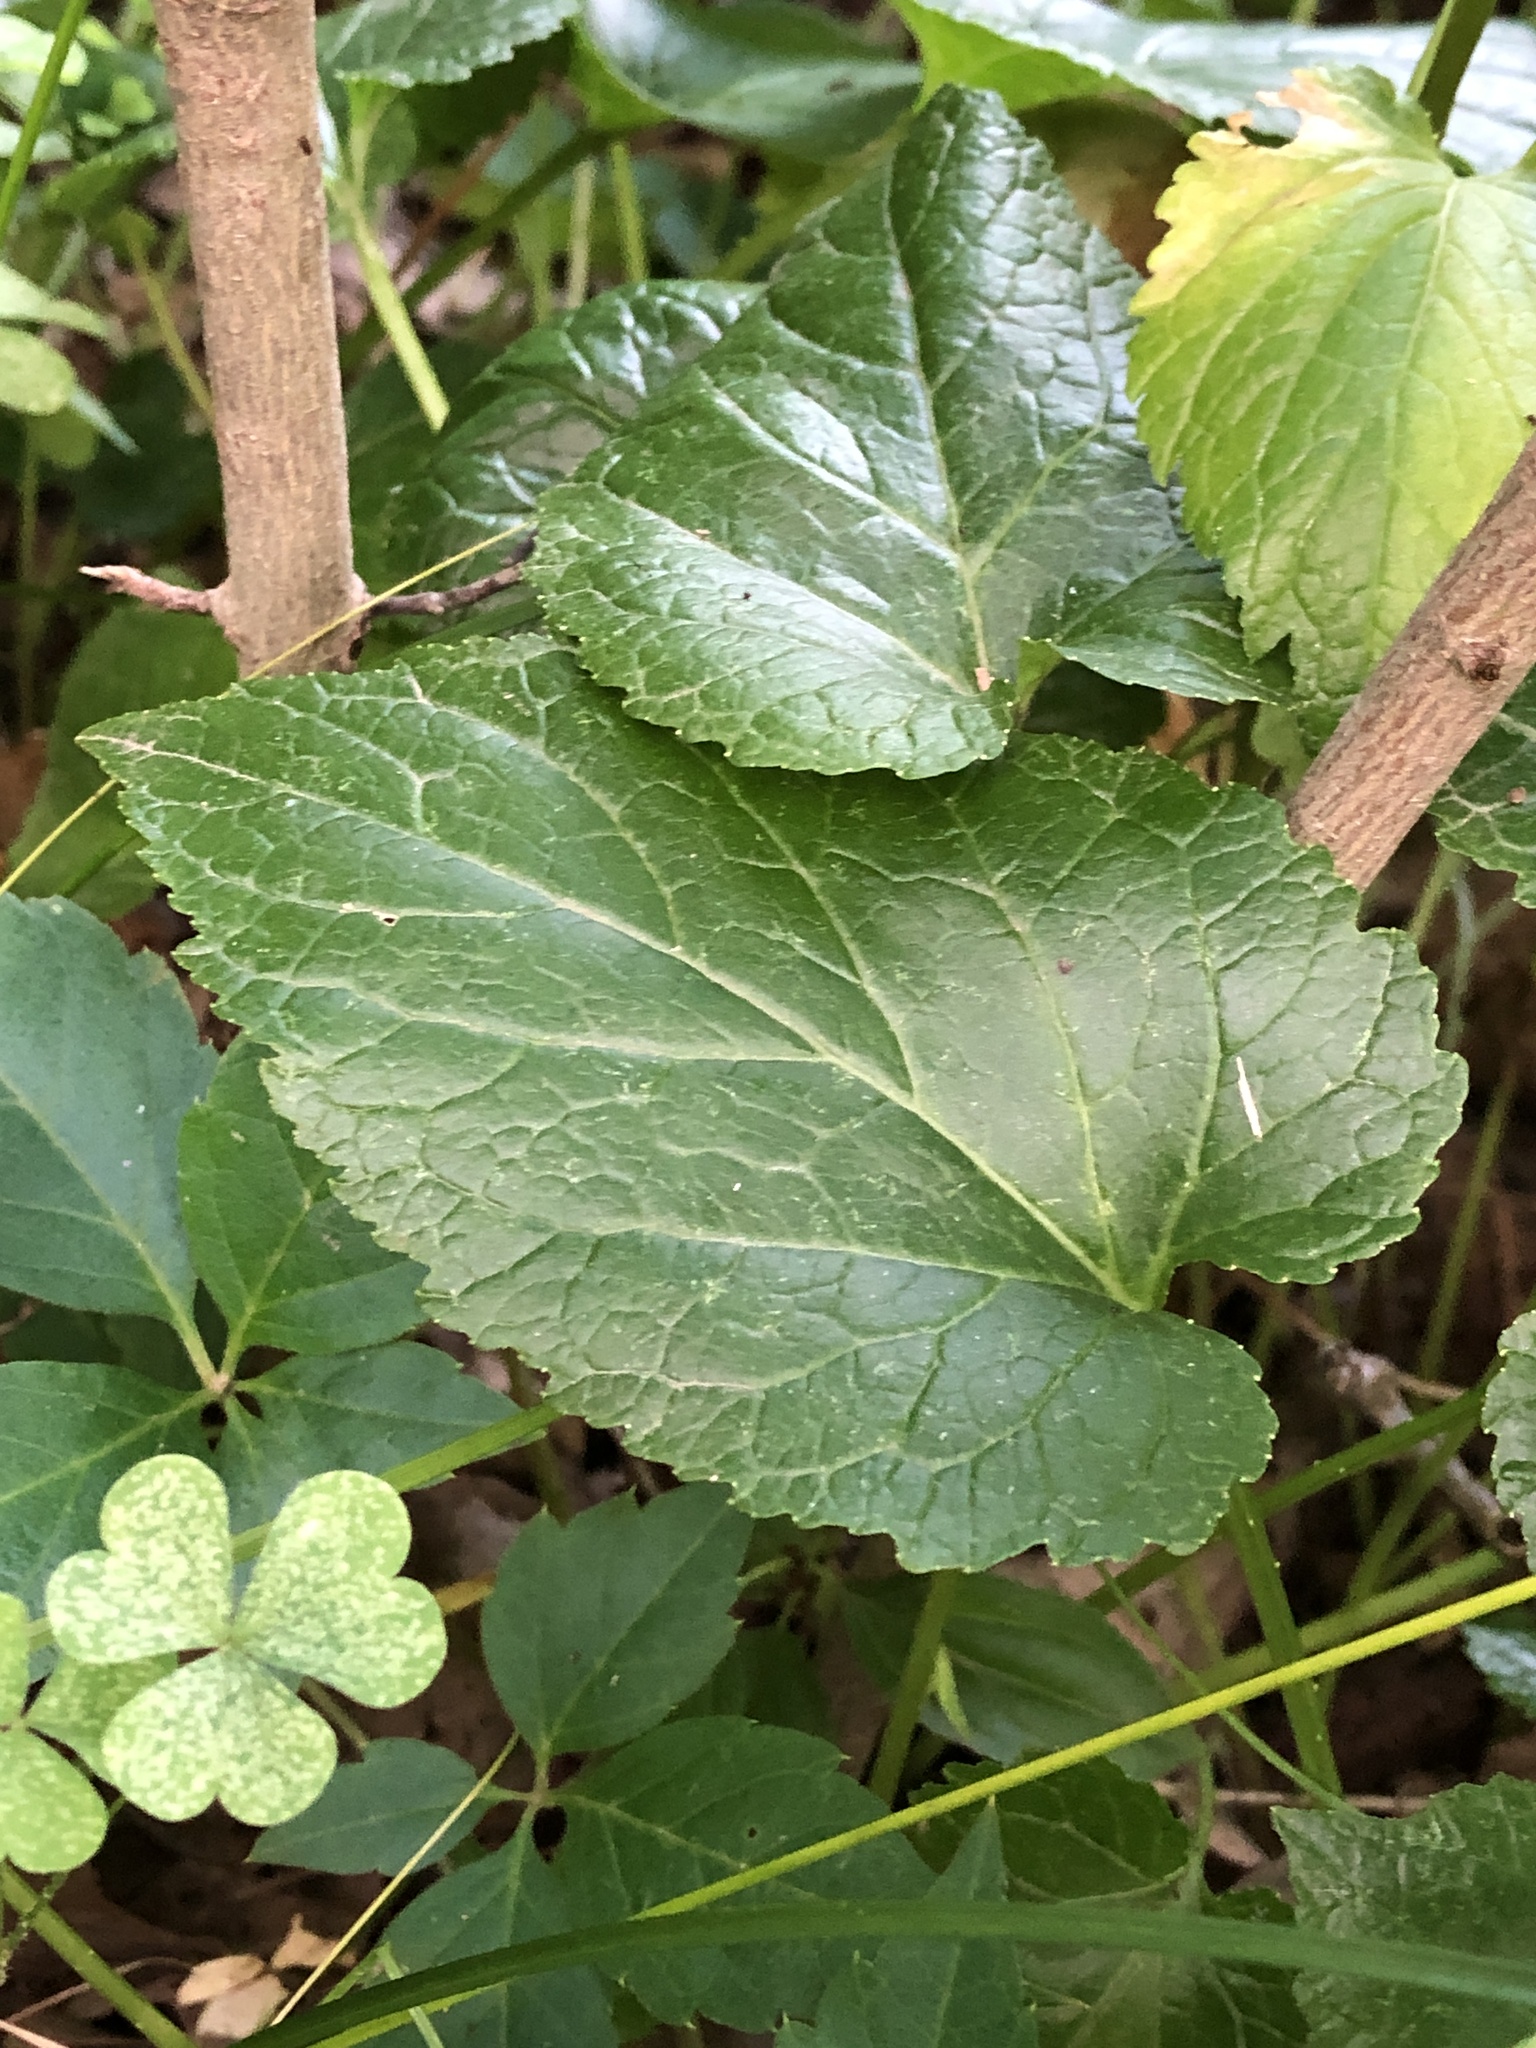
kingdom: Plantae
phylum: Tracheophyta
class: Magnoliopsida
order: Asterales
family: Campanulaceae
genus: Campanula
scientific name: Campanula punctata
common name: Spotted bellflower
